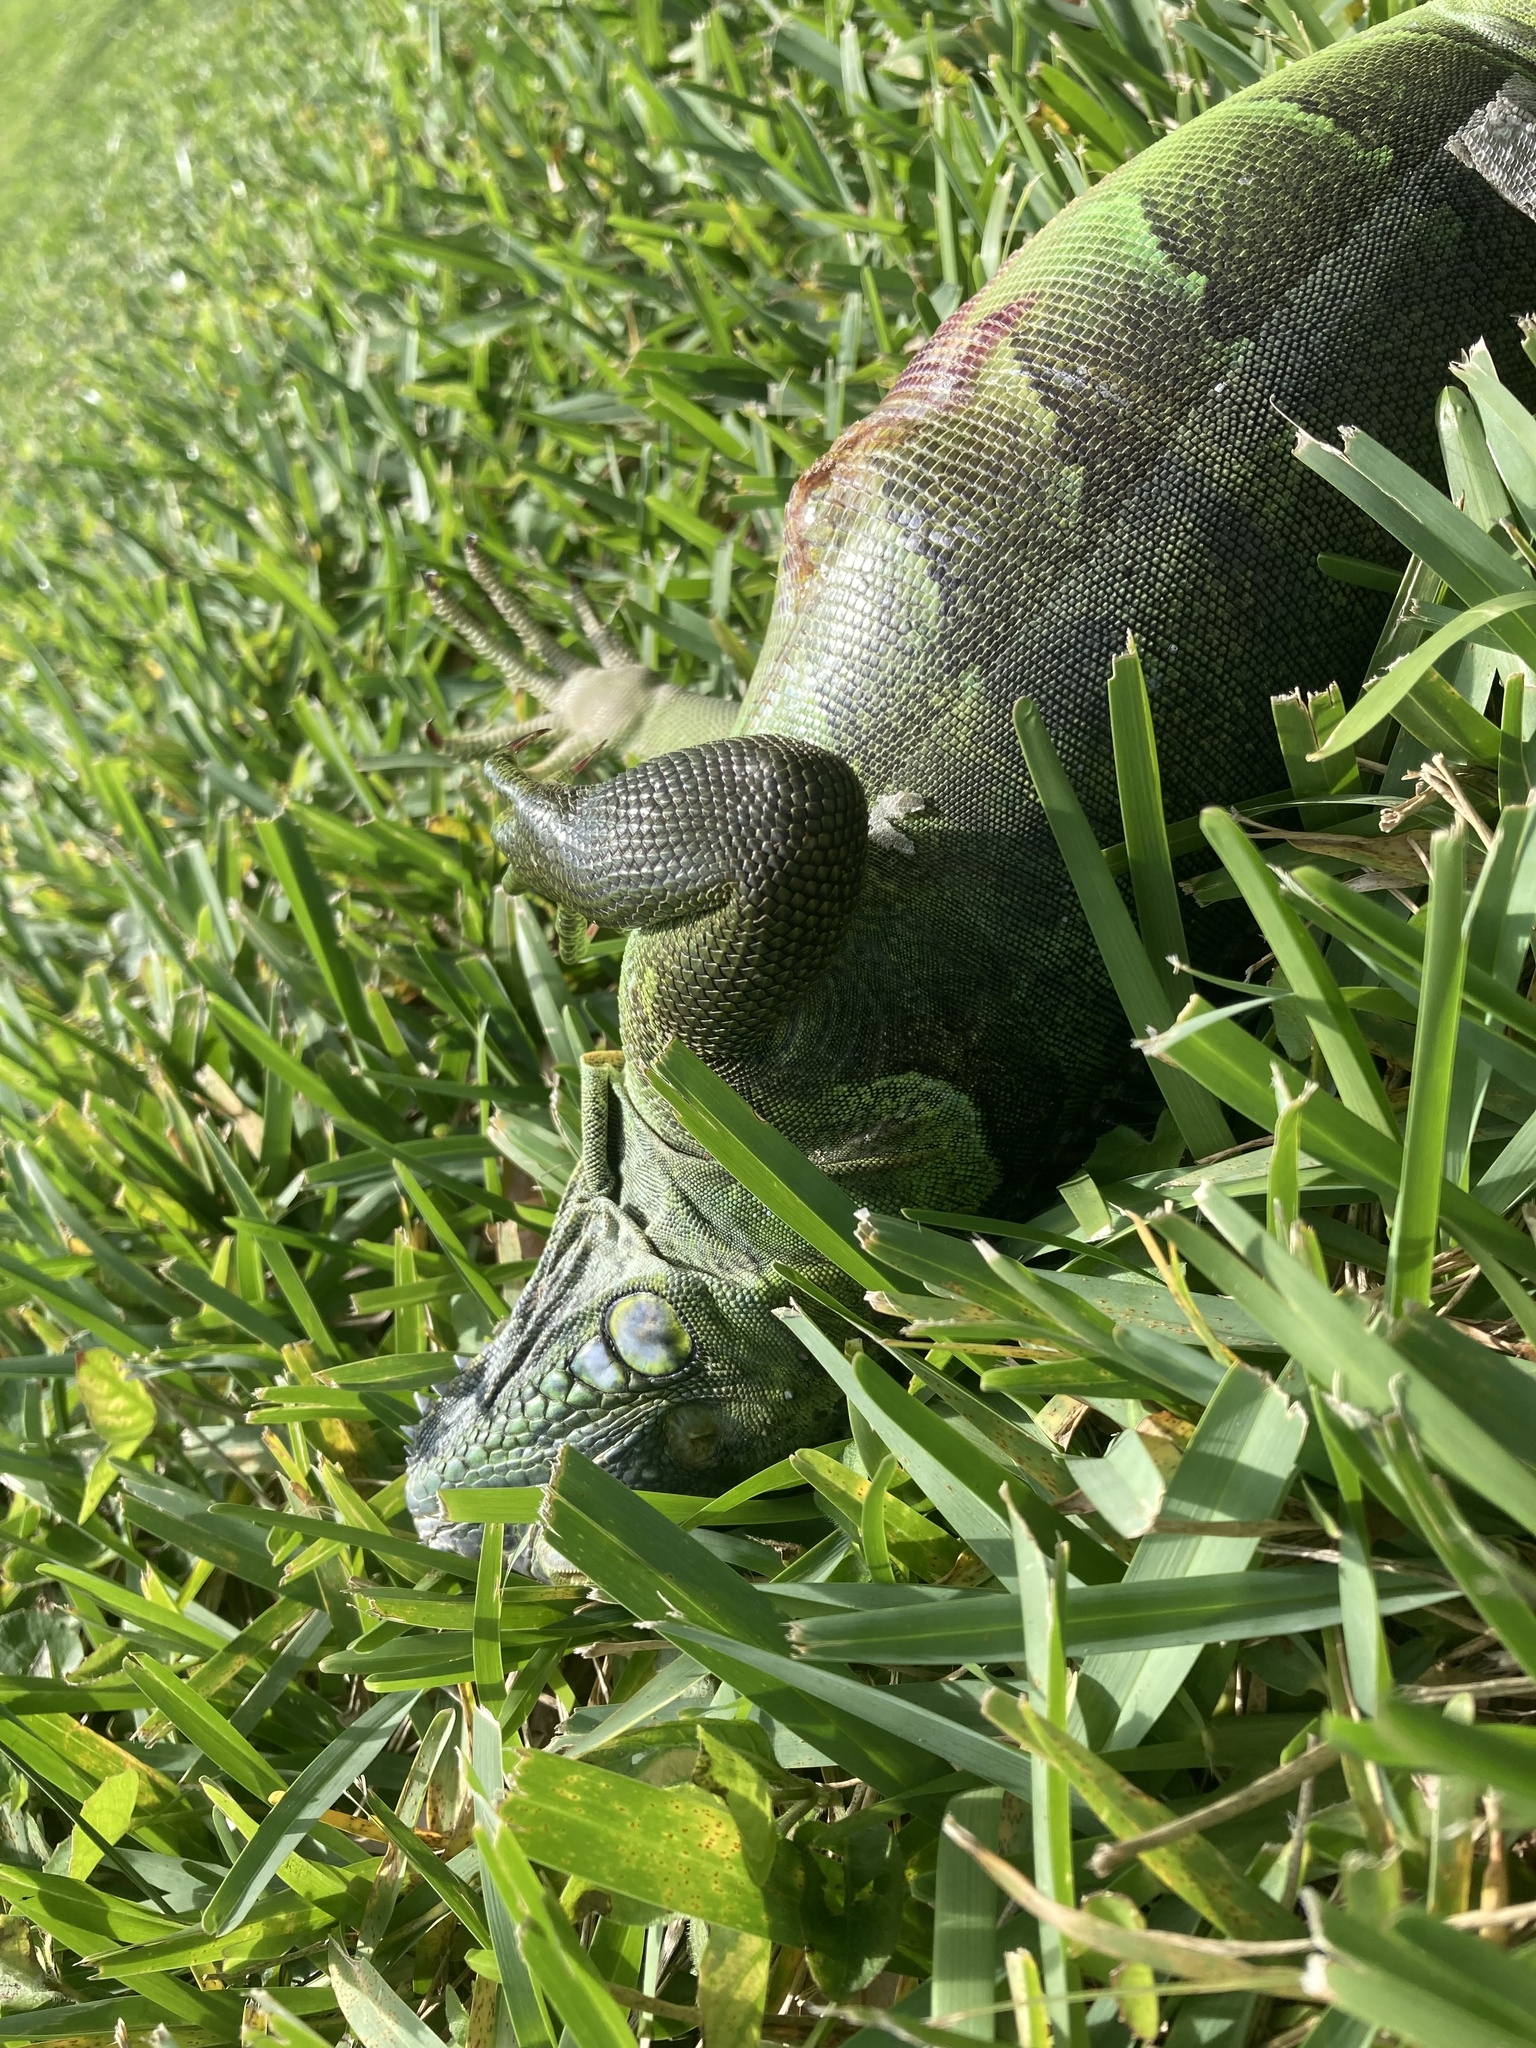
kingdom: Animalia
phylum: Chordata
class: Squamata
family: Iguanidae
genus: Iguana
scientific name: Iguana iguana
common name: Green iguana
